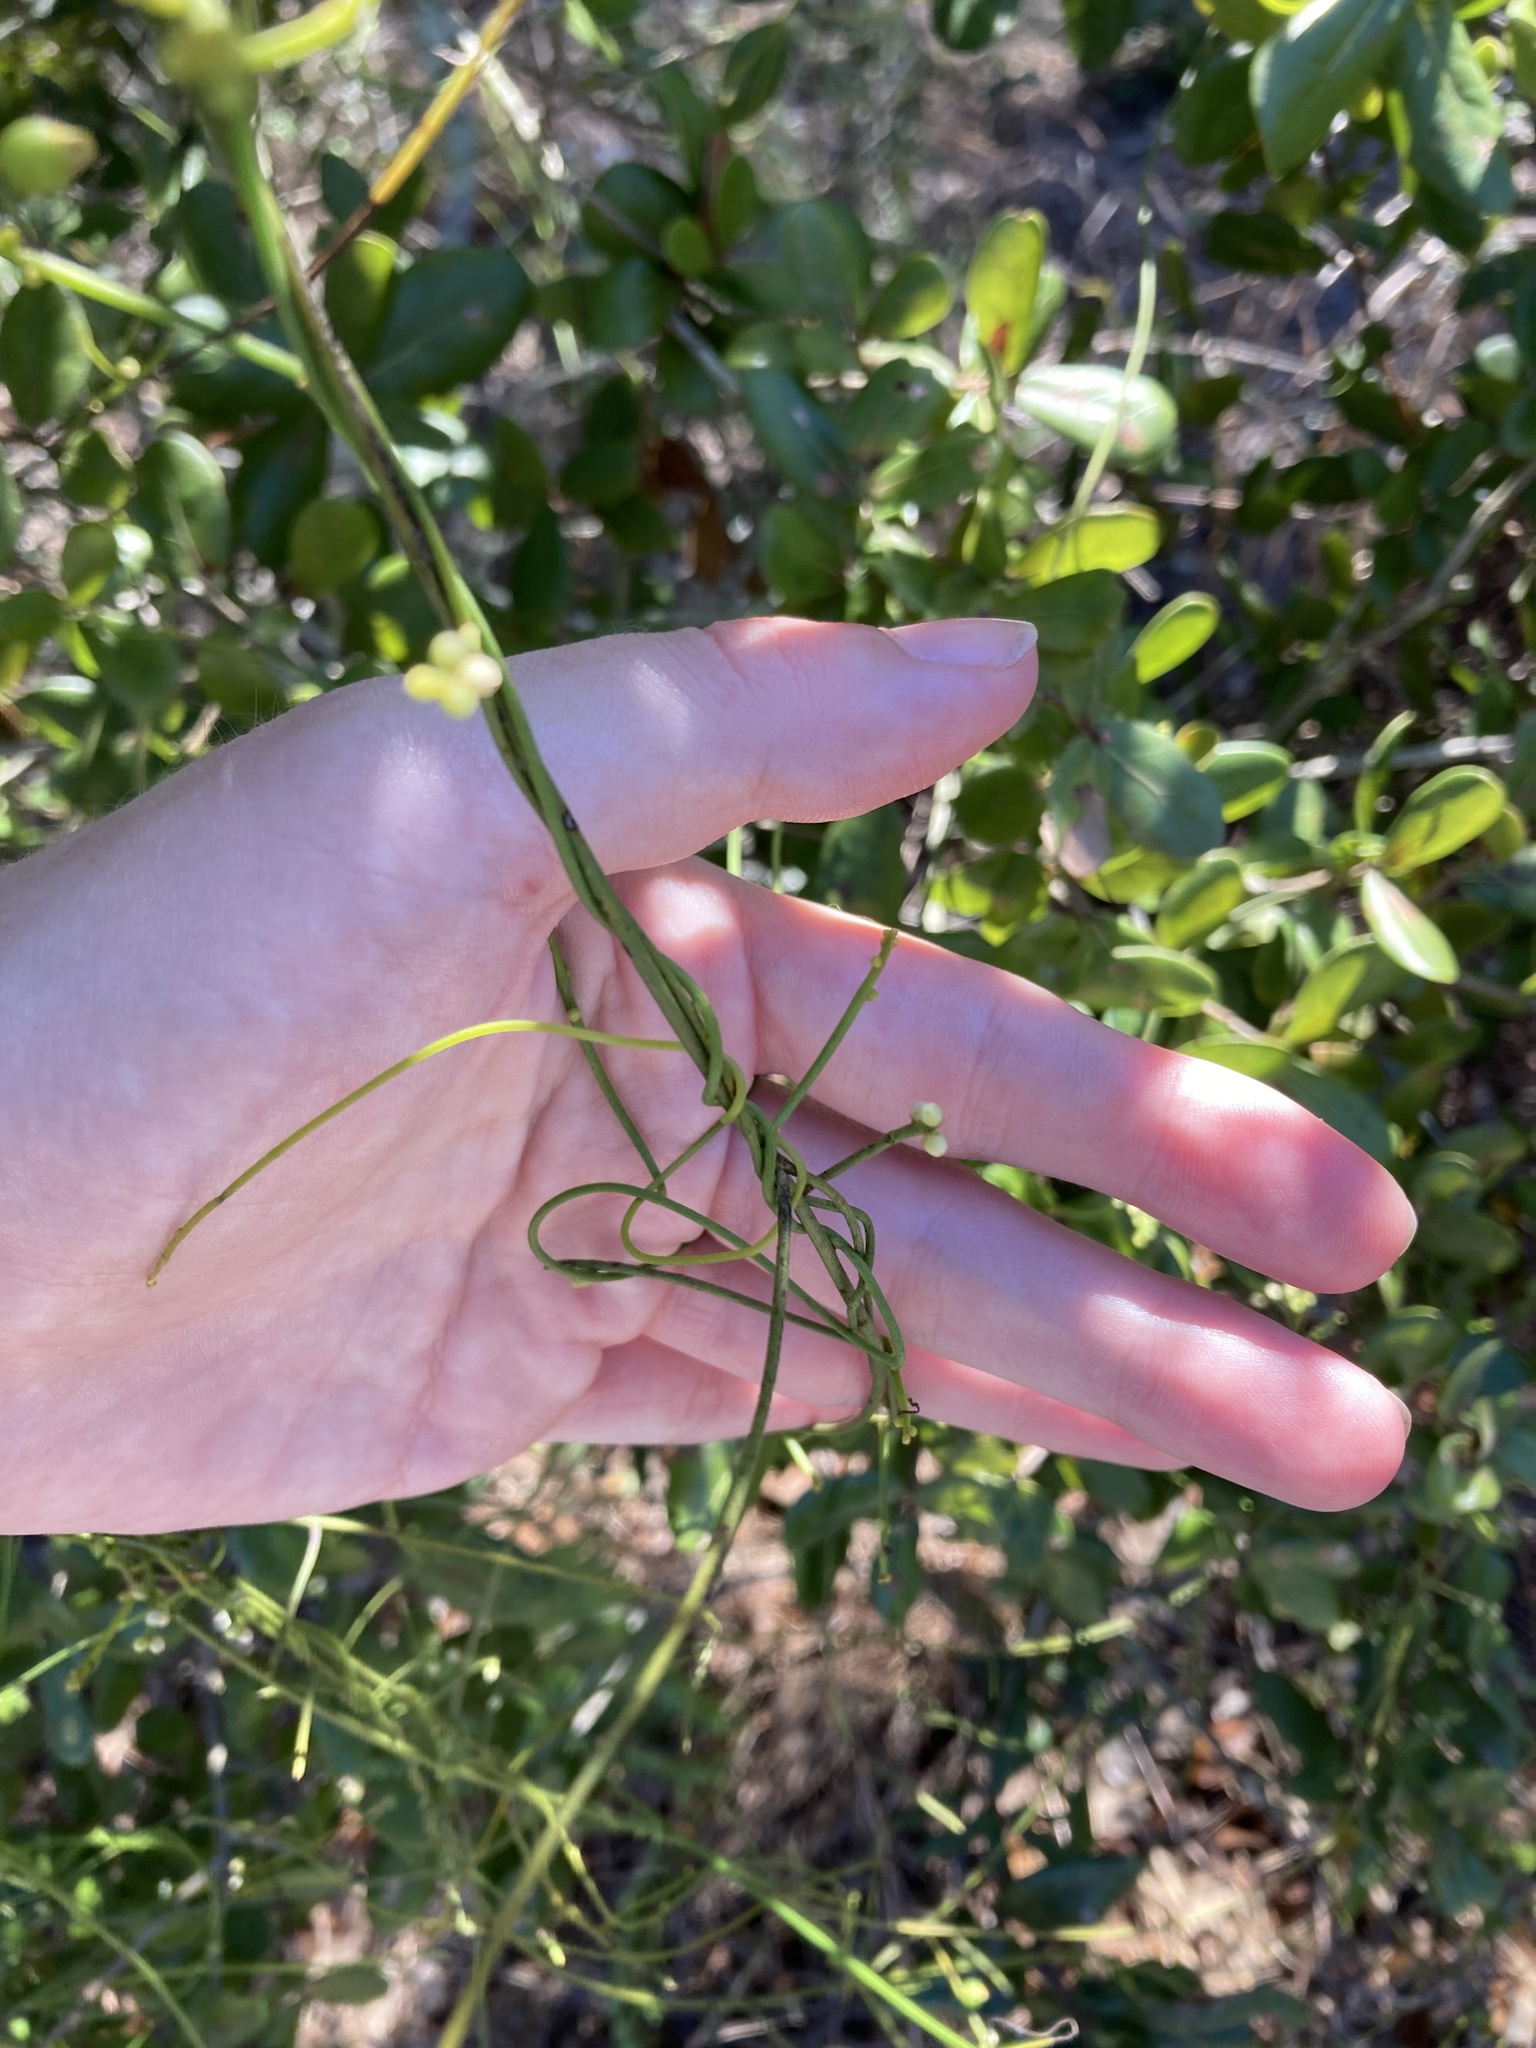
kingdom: Plantae
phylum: Tracheophyta
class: Magnoliopsida
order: Laurales
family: Lauraceae
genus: Cassytha
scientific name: Cassytha filiformis
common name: Dodder-laurel
